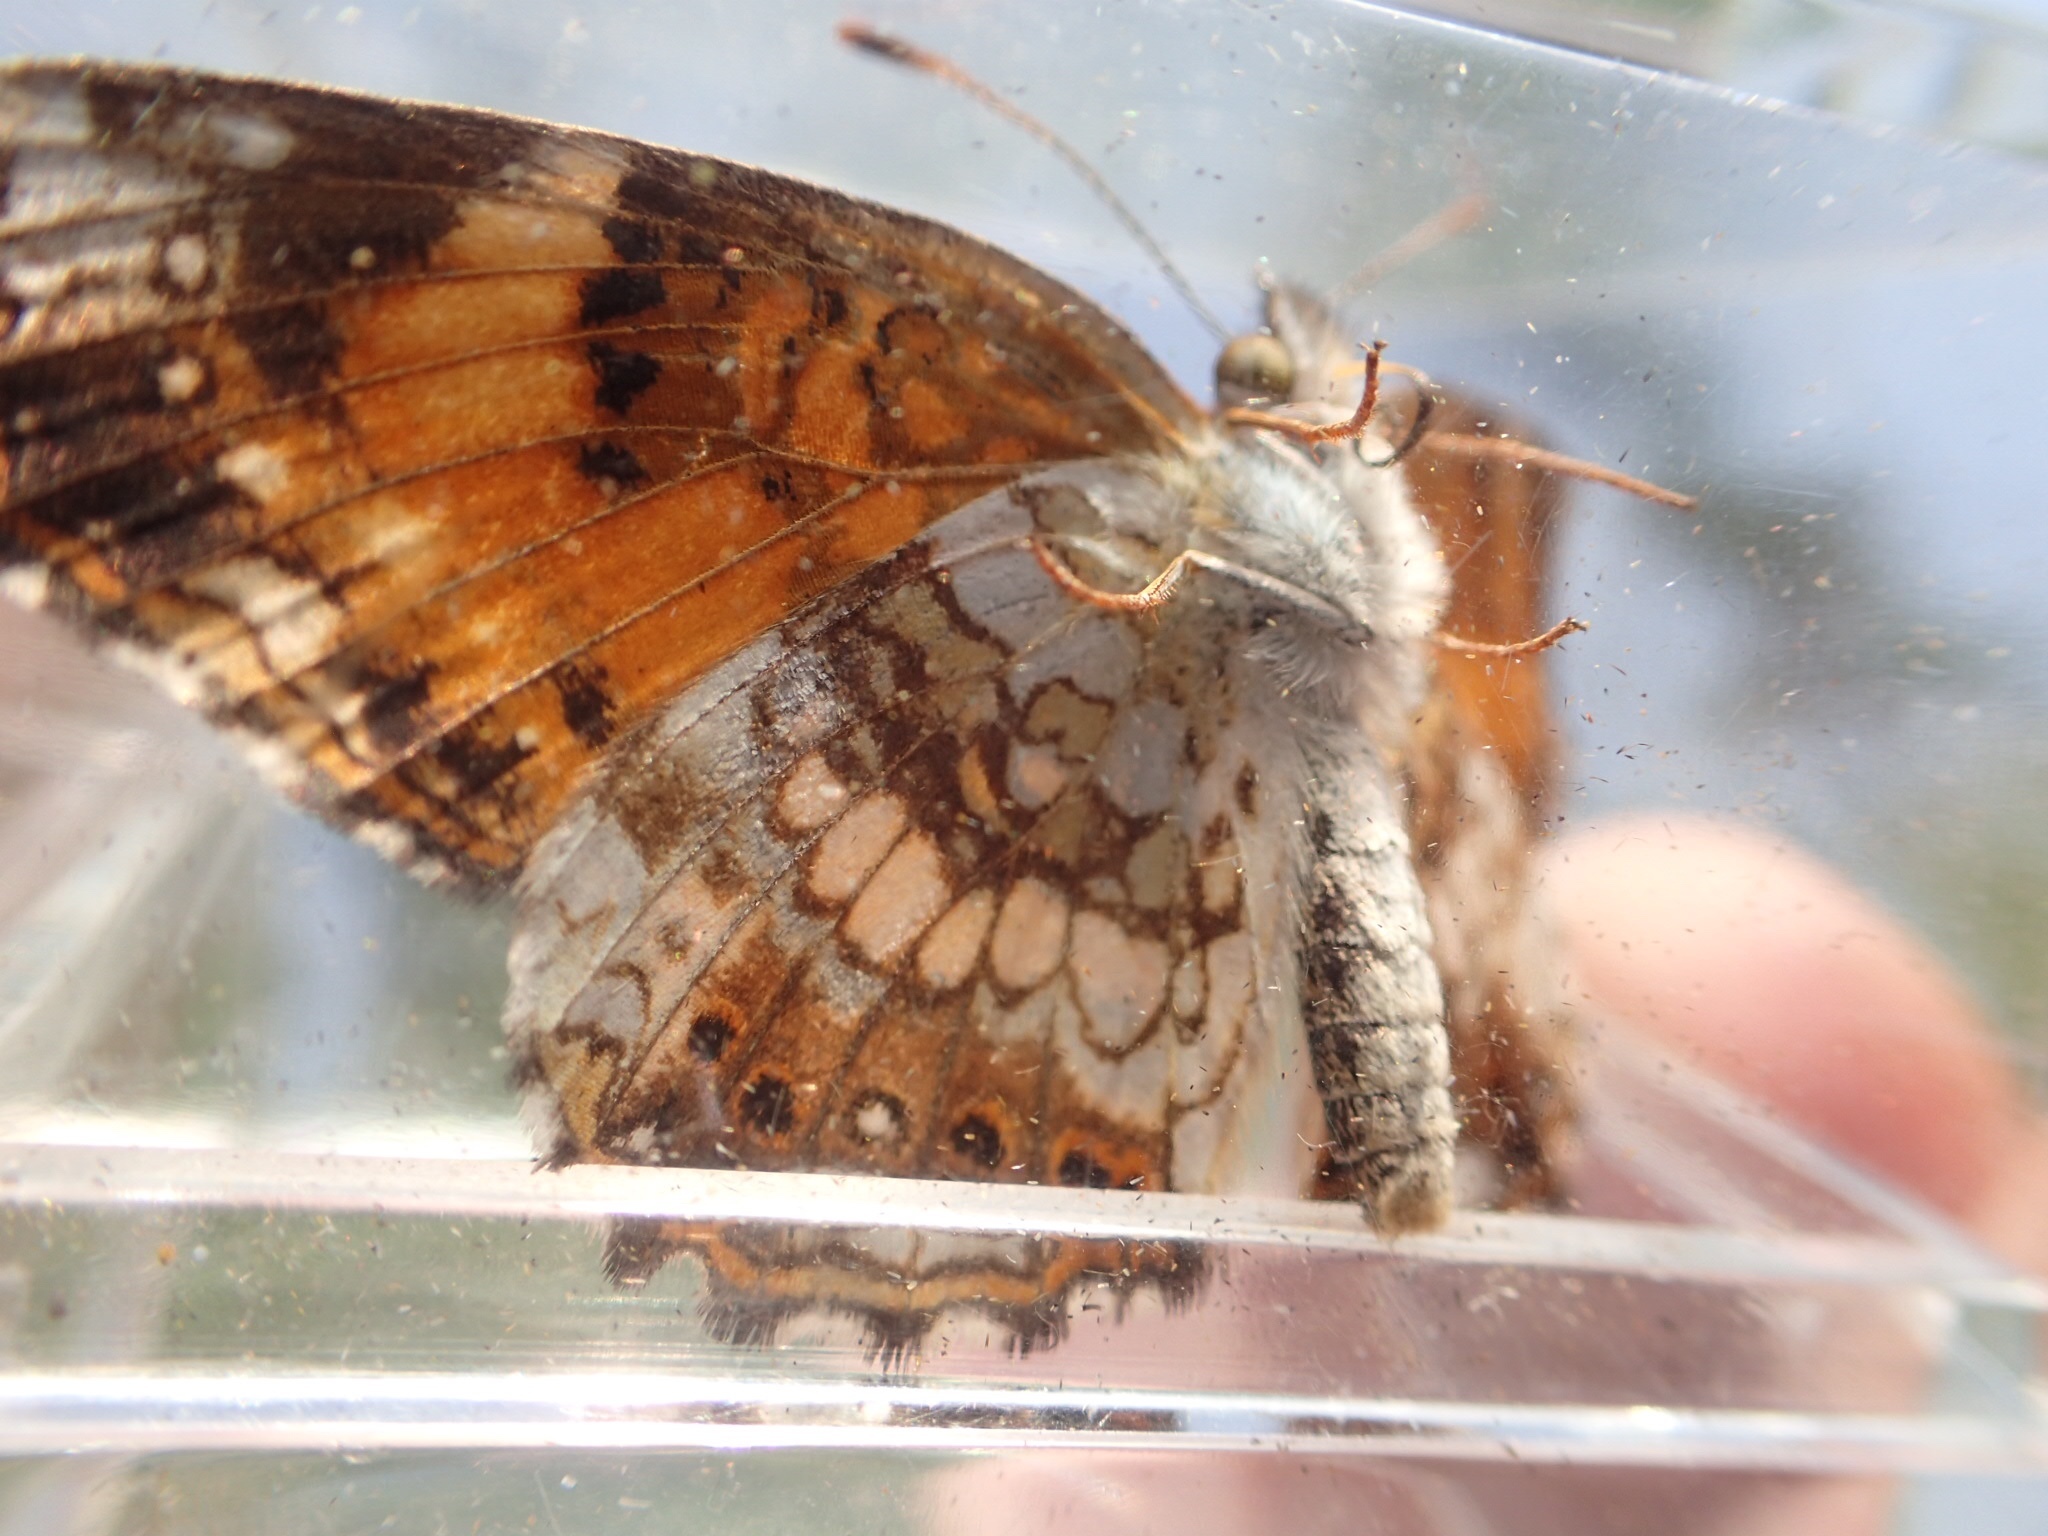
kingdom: Animalia
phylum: Arthropoda
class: Insecta
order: Lepidoptera
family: Nymphalidae
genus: Chlosyne
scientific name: Chlosyne nycteis
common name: Silvery checkerspot
